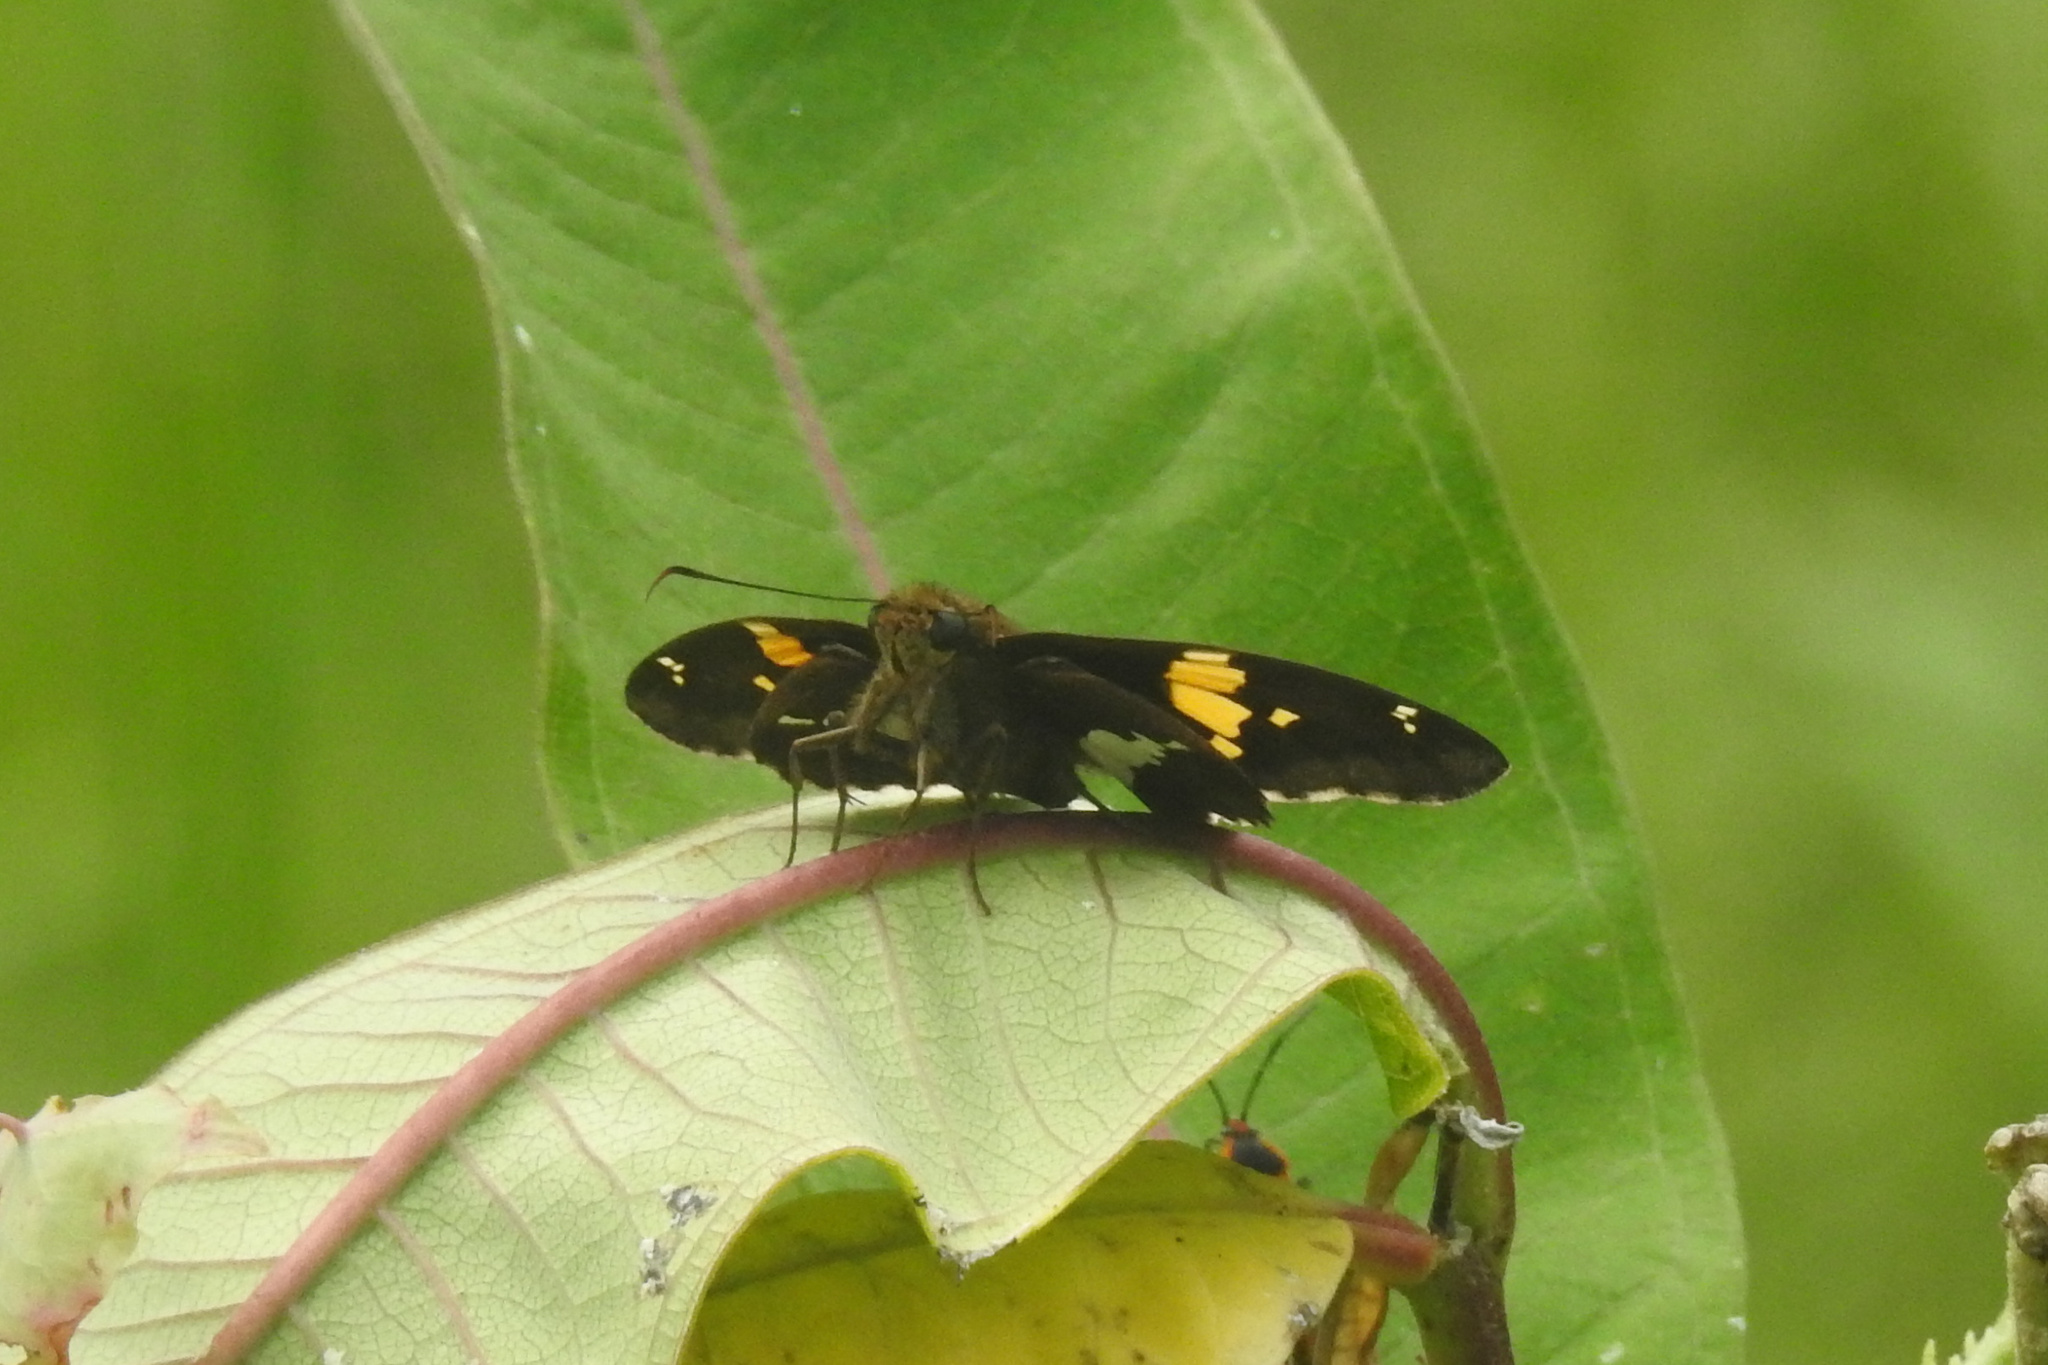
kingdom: Animalia
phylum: Arthropoda
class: Insecta
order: Lepidoptera
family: Hesperiidae
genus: Epargyreus
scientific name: Epargyreus clarus
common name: Silver-spotted skipper
